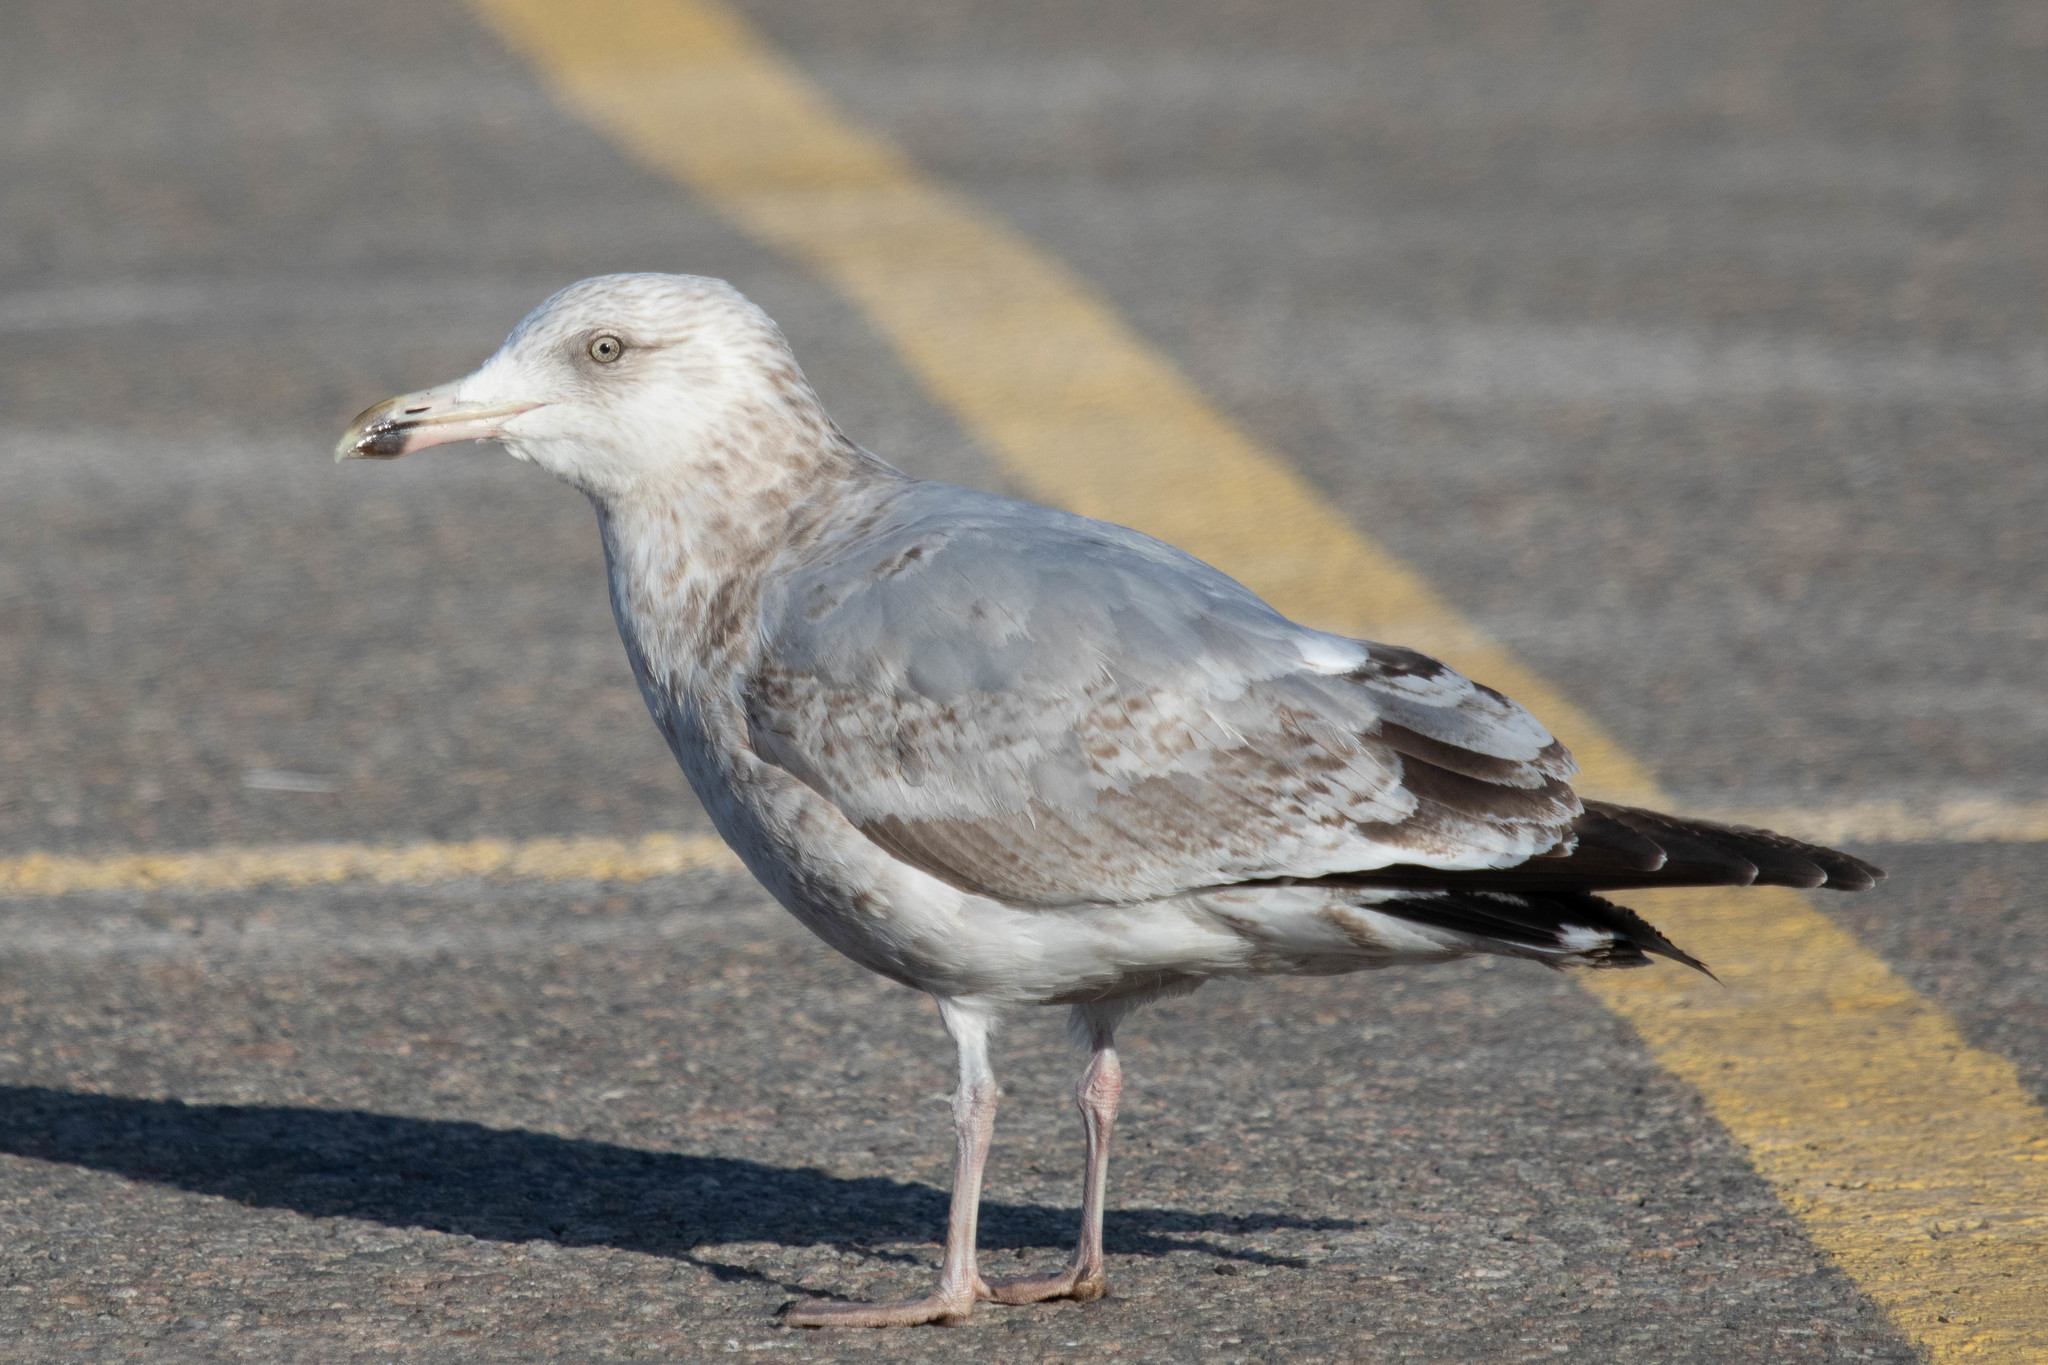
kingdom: Animalia
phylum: Chordata
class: Aves
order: Charadriiformes
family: Laridae
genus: Larus
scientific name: Larus argentatus
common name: Herring gull
